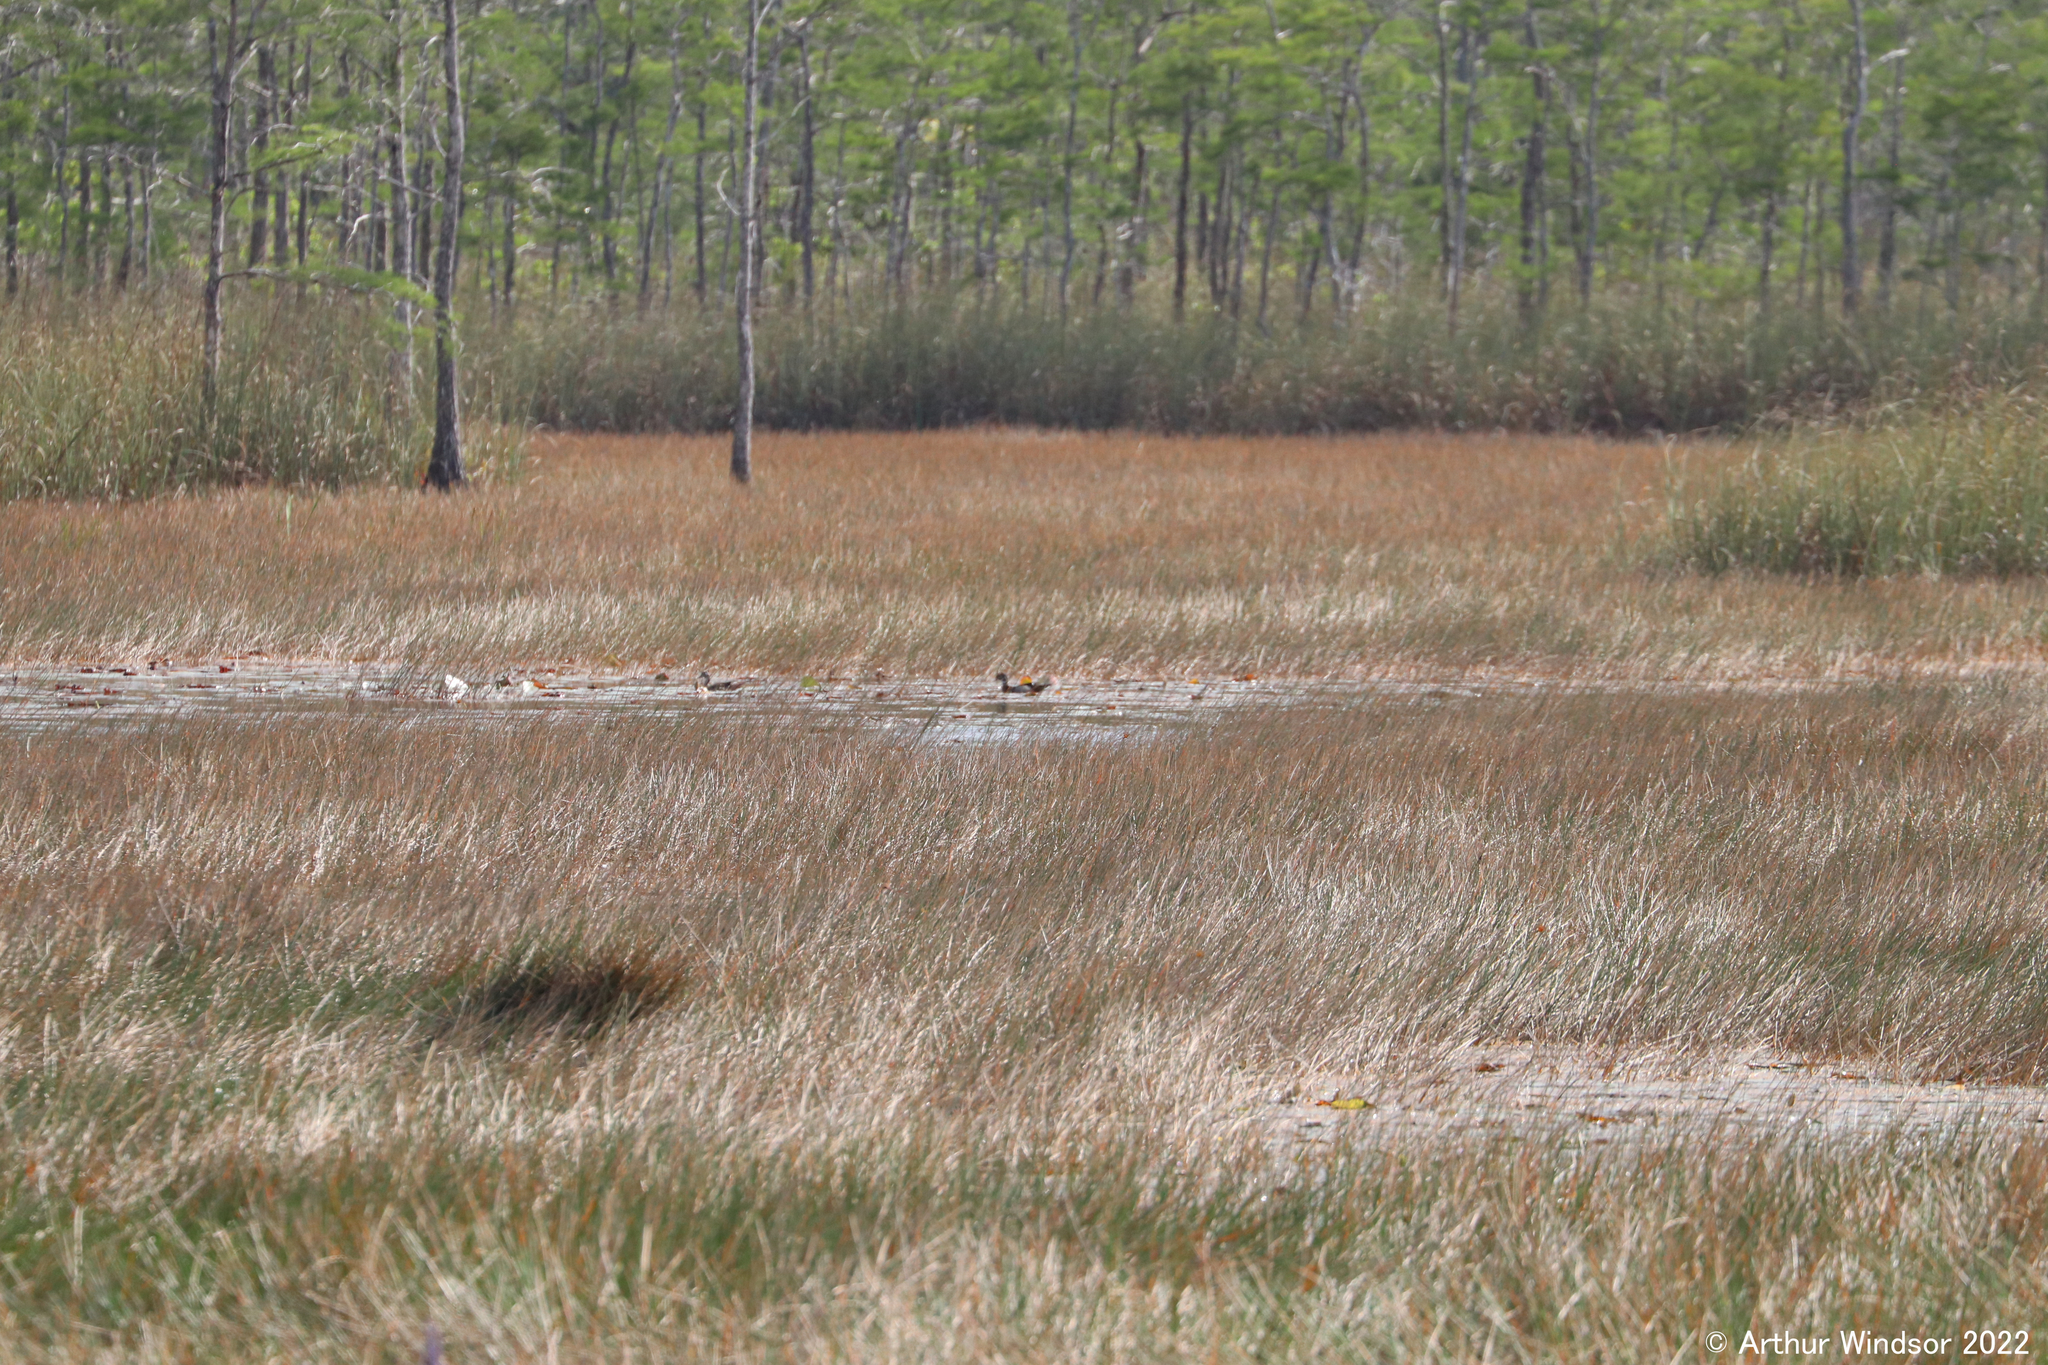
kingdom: Animalia
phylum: Chordata
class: Aves
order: Anseriformes
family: Anatidae
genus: Aix
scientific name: Aix sponsa
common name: Wood duck
